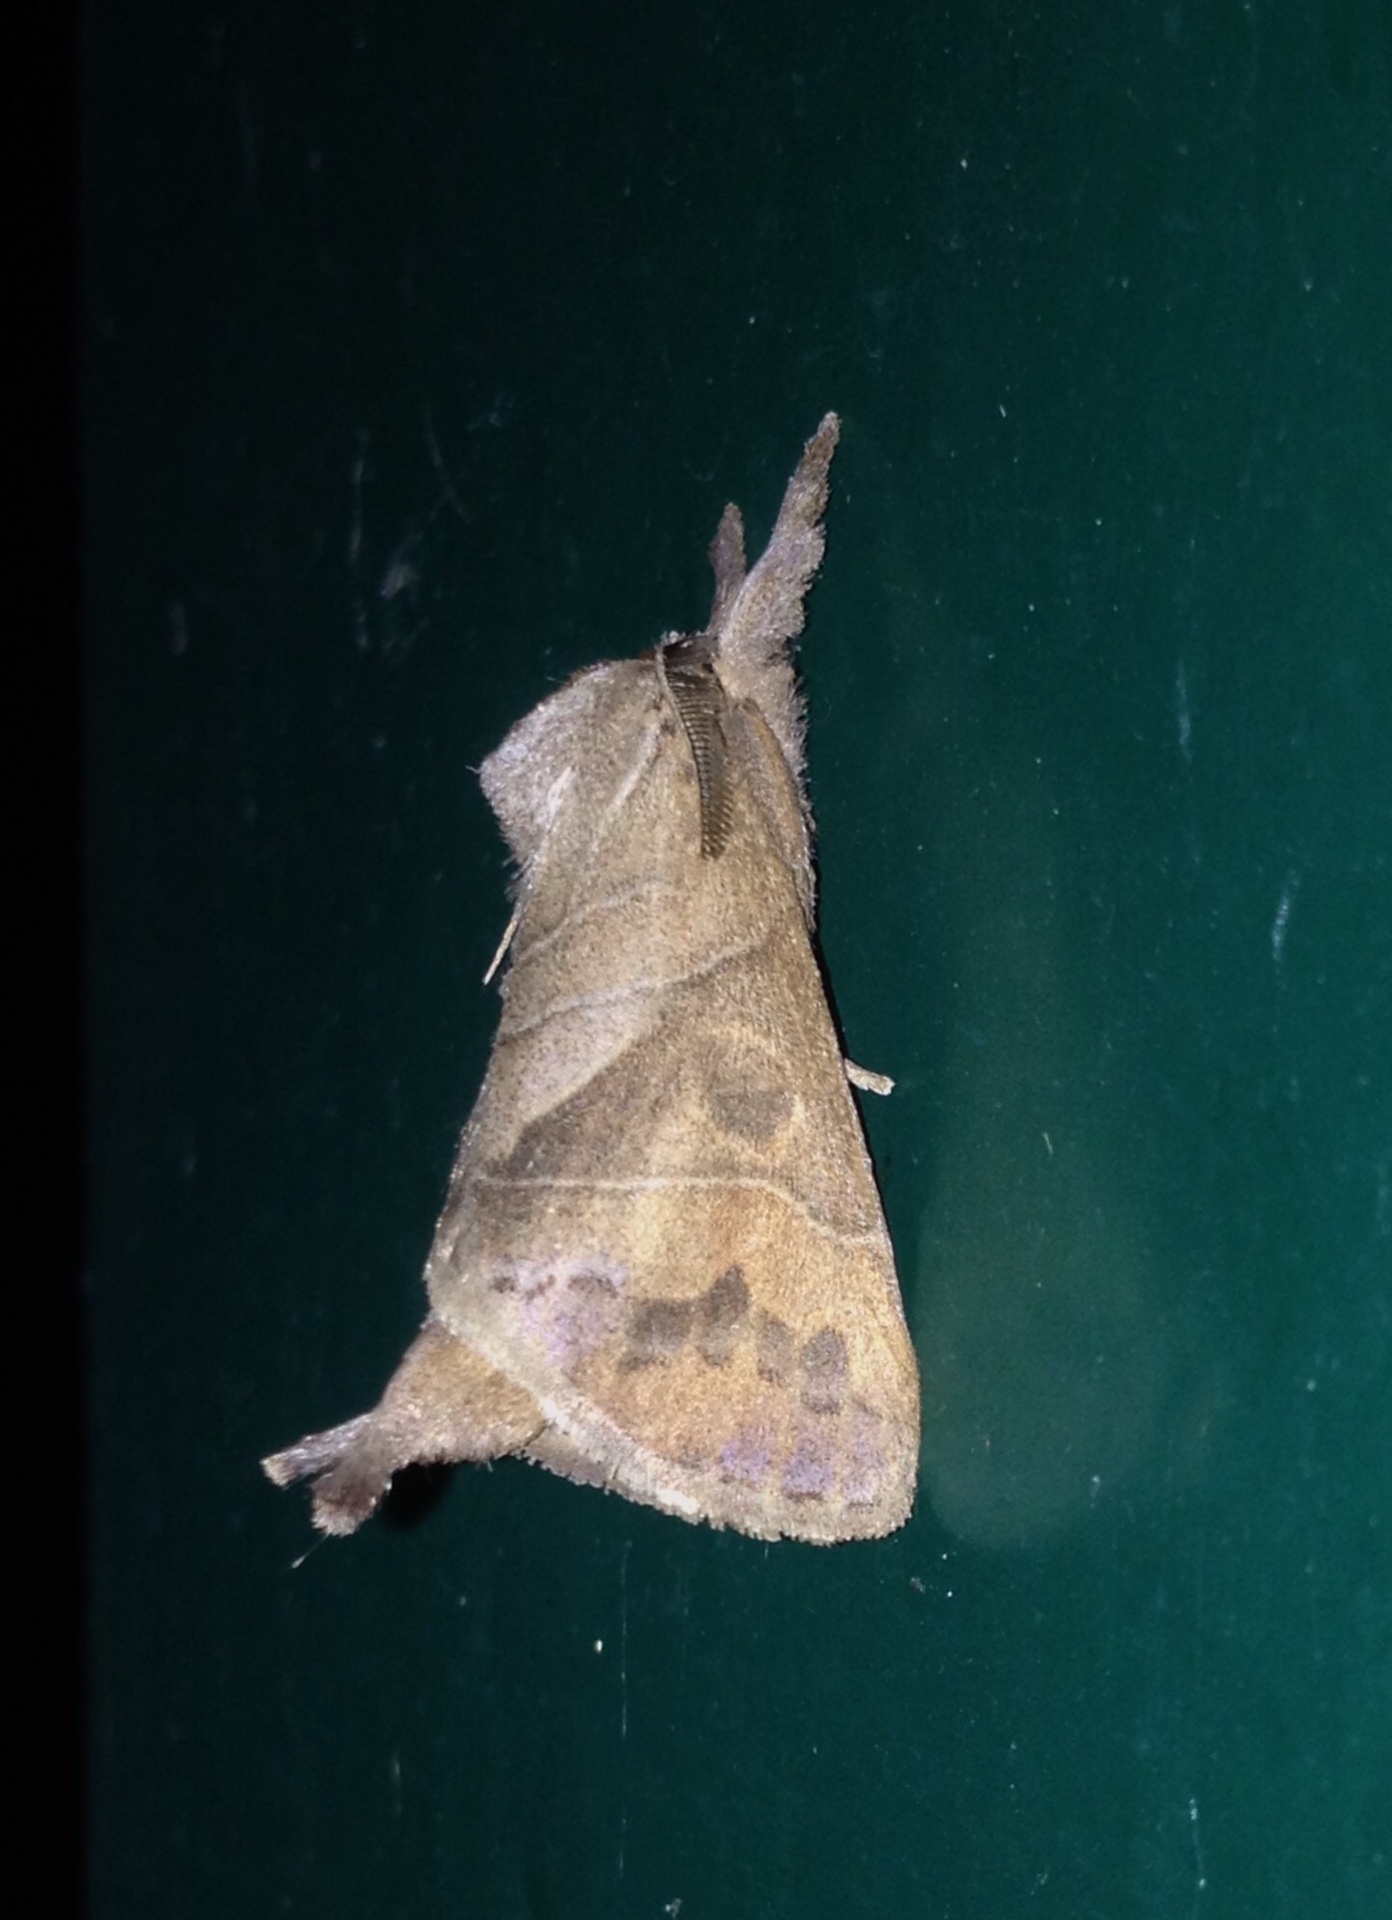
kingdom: Animalia
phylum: Arthropoda
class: Insecta
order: Lepidoptera
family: Notodontidae
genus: Clostera
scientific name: Clostera anastomosis
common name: Poplar tip moth
